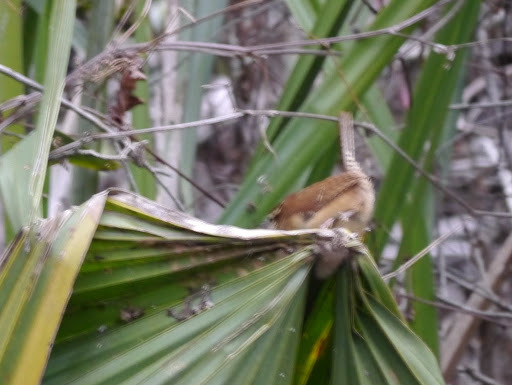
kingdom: Animalia
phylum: Chordata
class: Aves
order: Passeriformes
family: Troglodytidae
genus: Thryothorus
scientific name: Thryothorus ludovicianus
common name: Carolina wren
